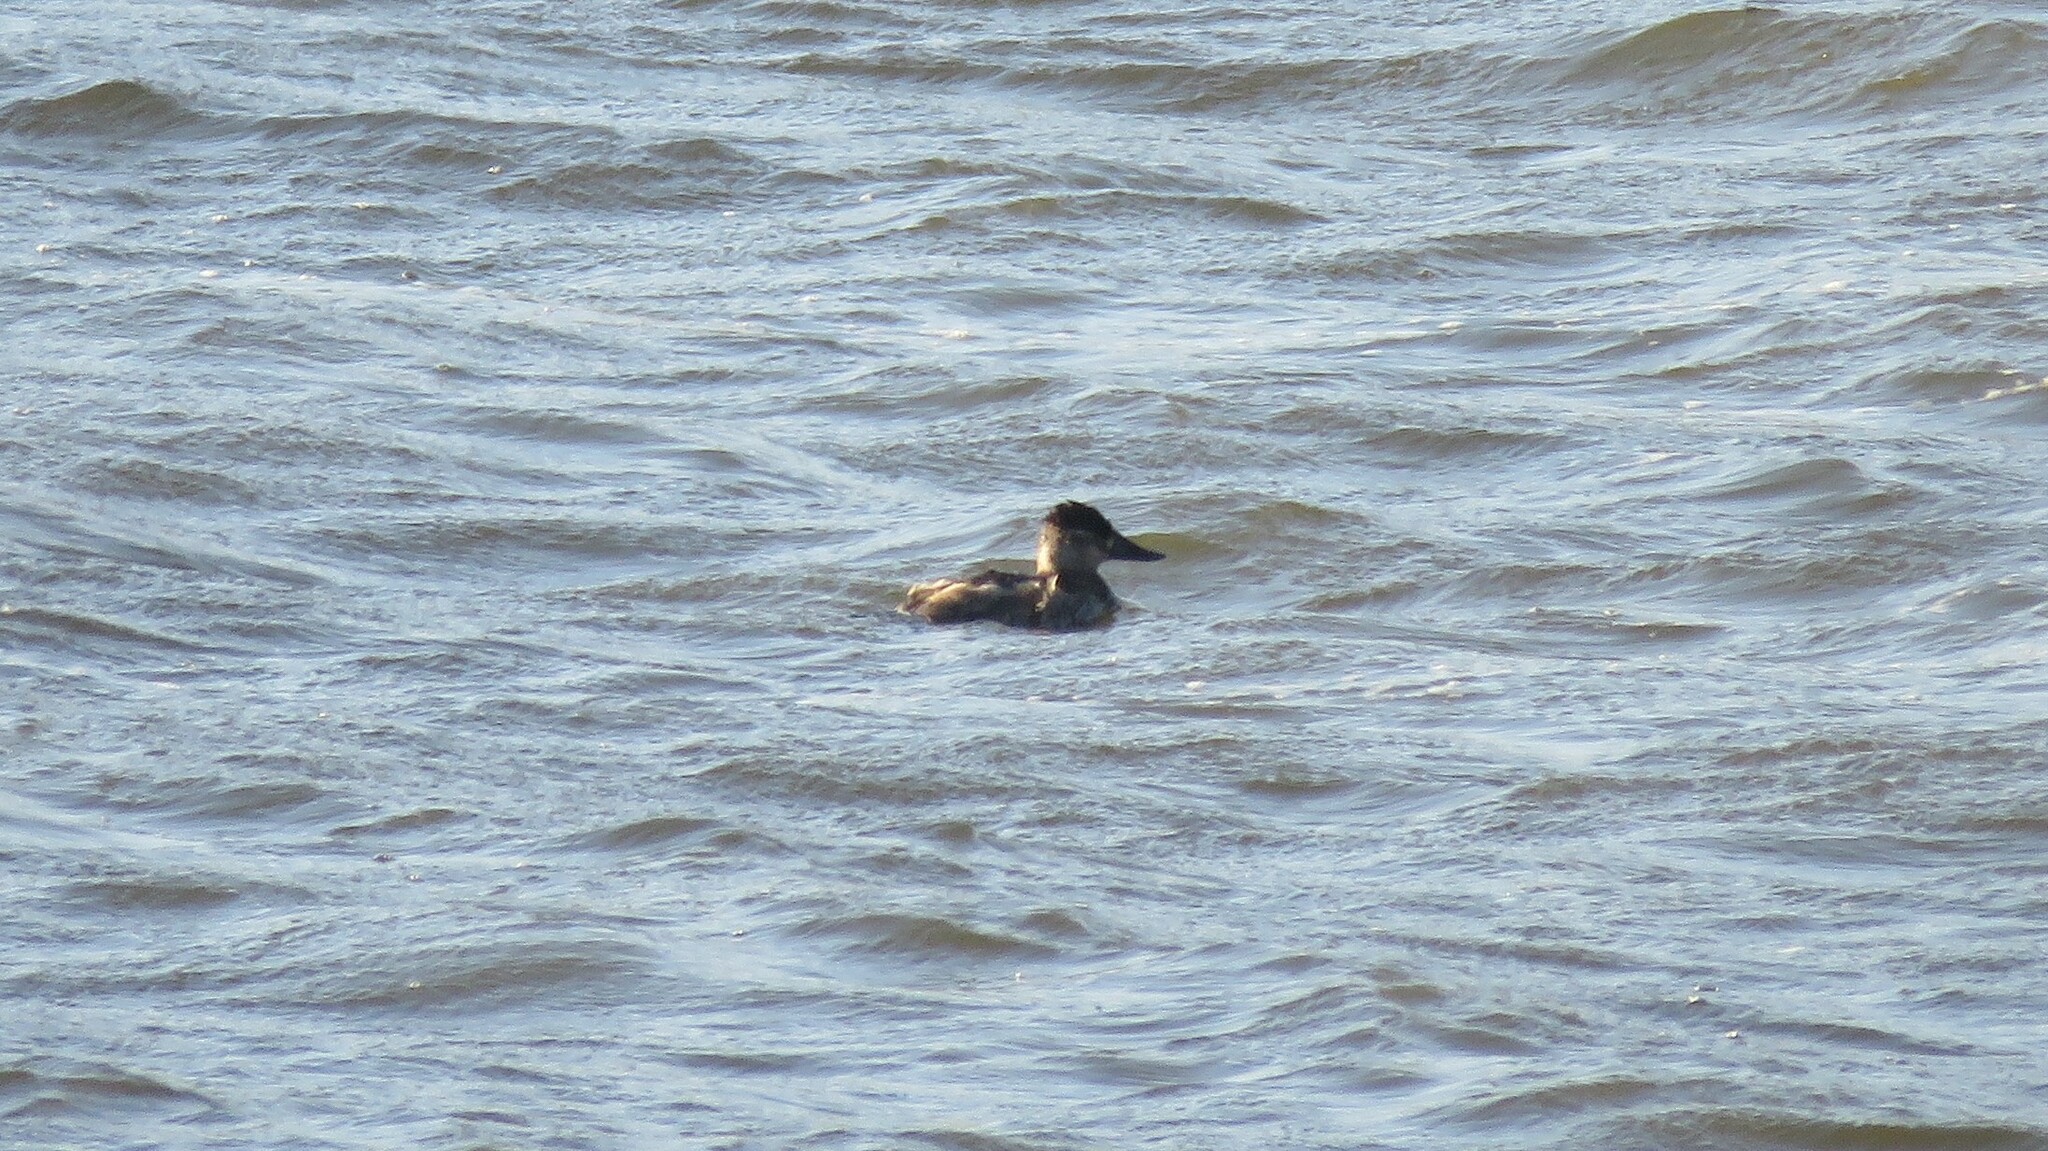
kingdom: Animalia
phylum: Chordata
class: Aves
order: Anseriformes
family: Anatidae
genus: Oxyura
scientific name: Oxyura jamaicensis
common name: Ruddy duck
